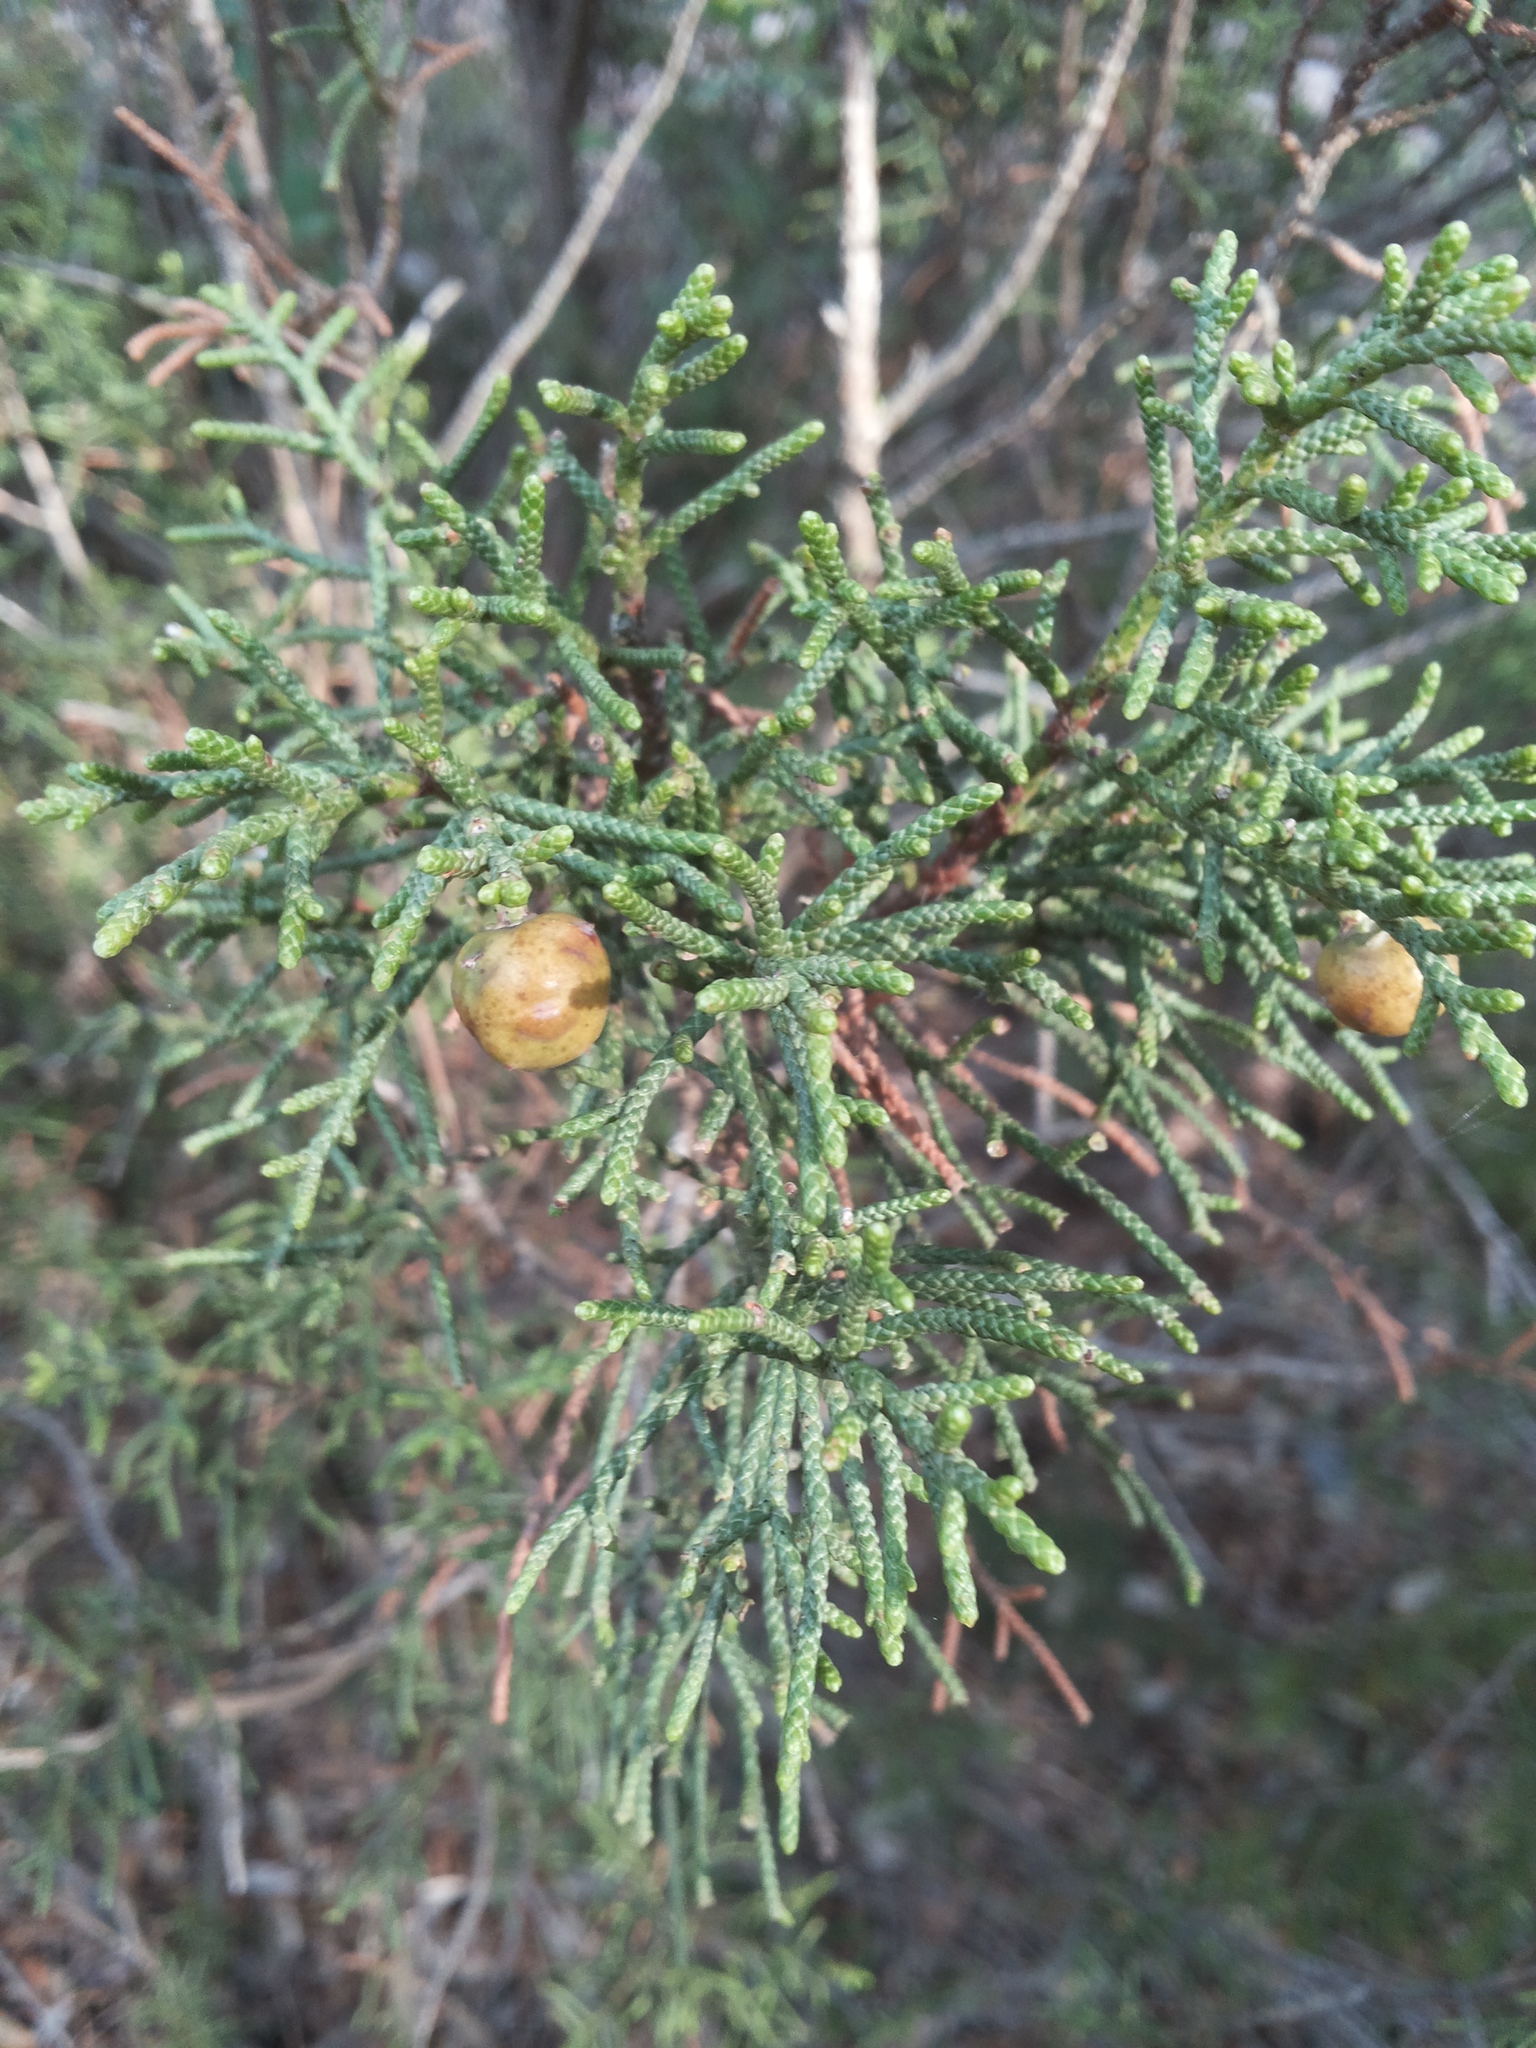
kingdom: Plantae
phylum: Tracheophyta
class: Pinopsida
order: Pinales
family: Cupressaceae
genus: Juniperus
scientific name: Juniperus phoenicea
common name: Phoenician juniper
